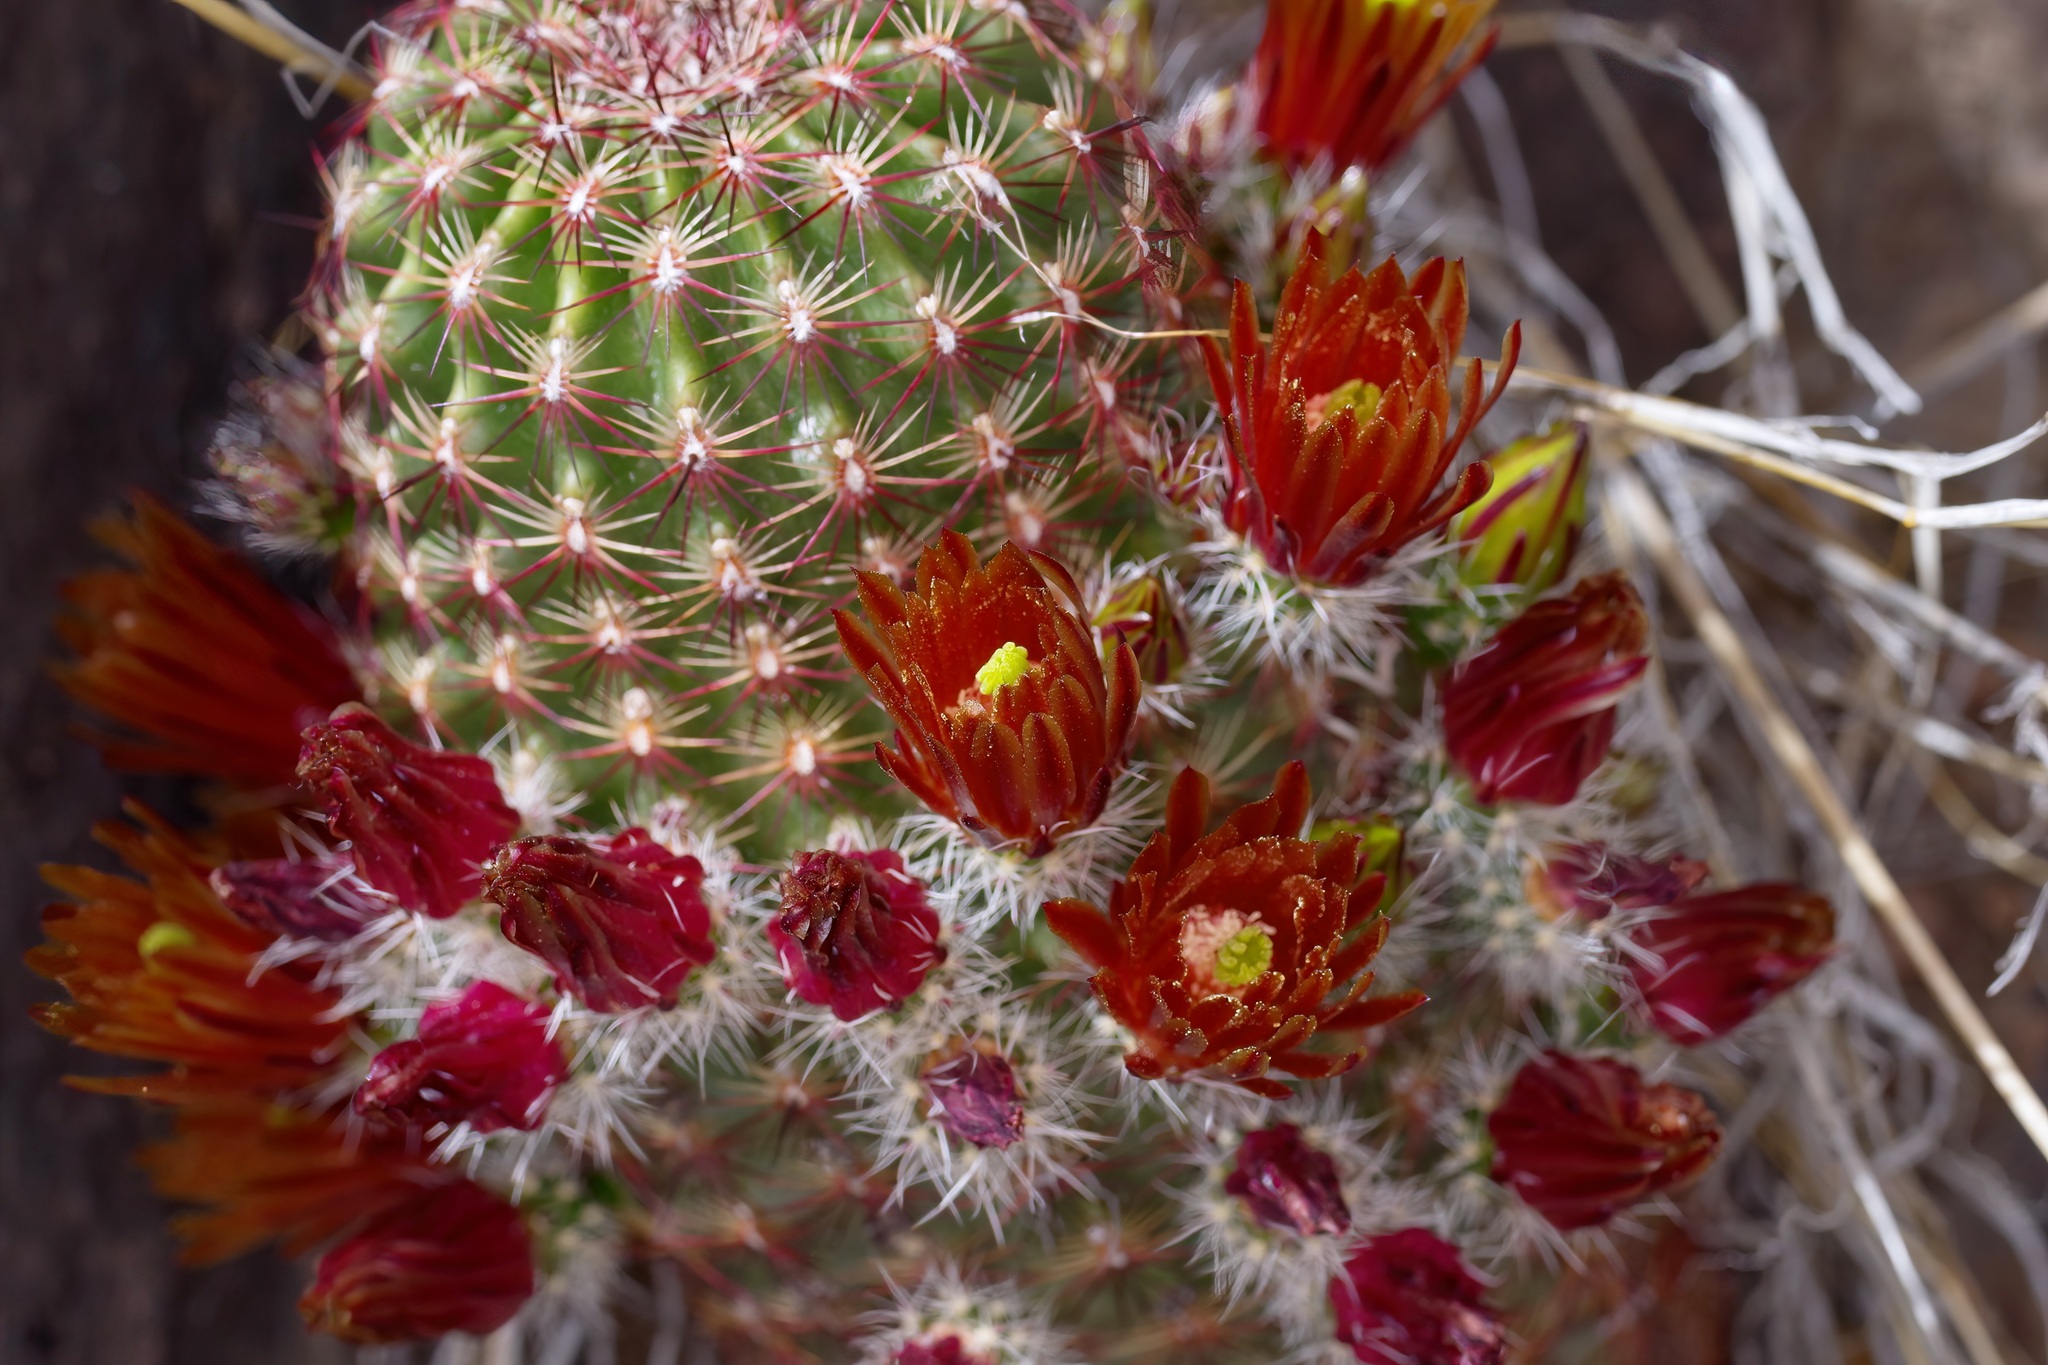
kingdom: Plantae
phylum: Tracheophyta
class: Magnoliopsida
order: Caryophyllales
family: Cactaceae
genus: Echinocereus
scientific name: Echinocereus viridiflorus
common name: Nylon hedgehog cactus
